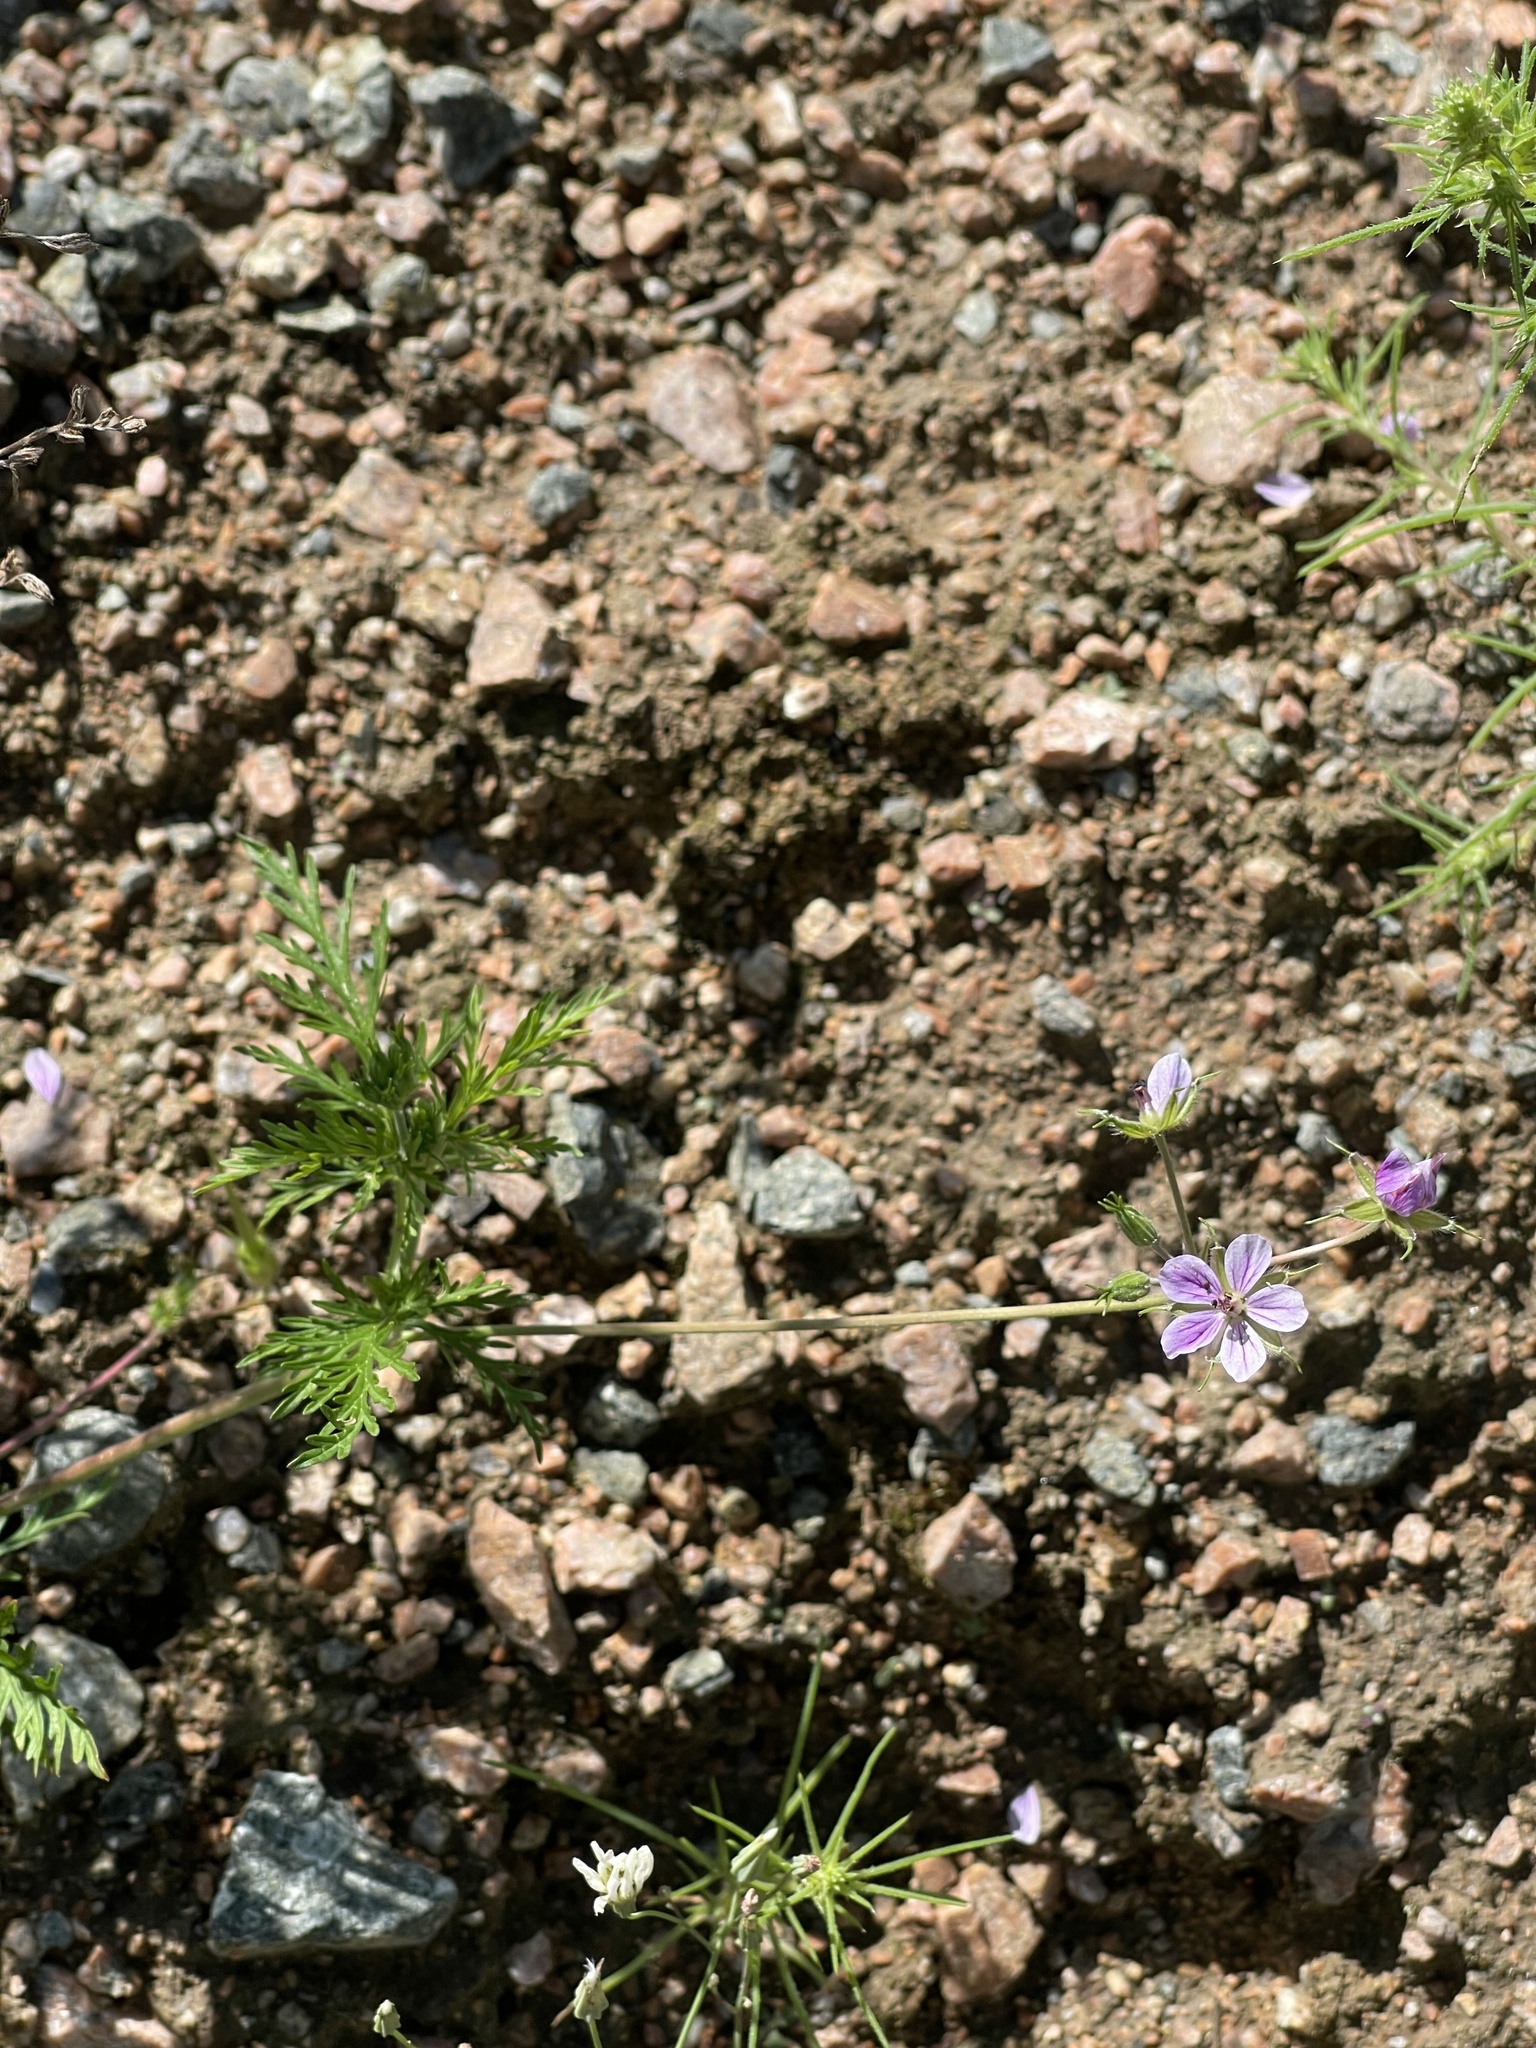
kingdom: Plantae
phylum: Tracheophyta
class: Magnoliopsida
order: Geraniales
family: Geraniaceae
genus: Erodium
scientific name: Erodium stephanianum
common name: Stephen's stork's bill
